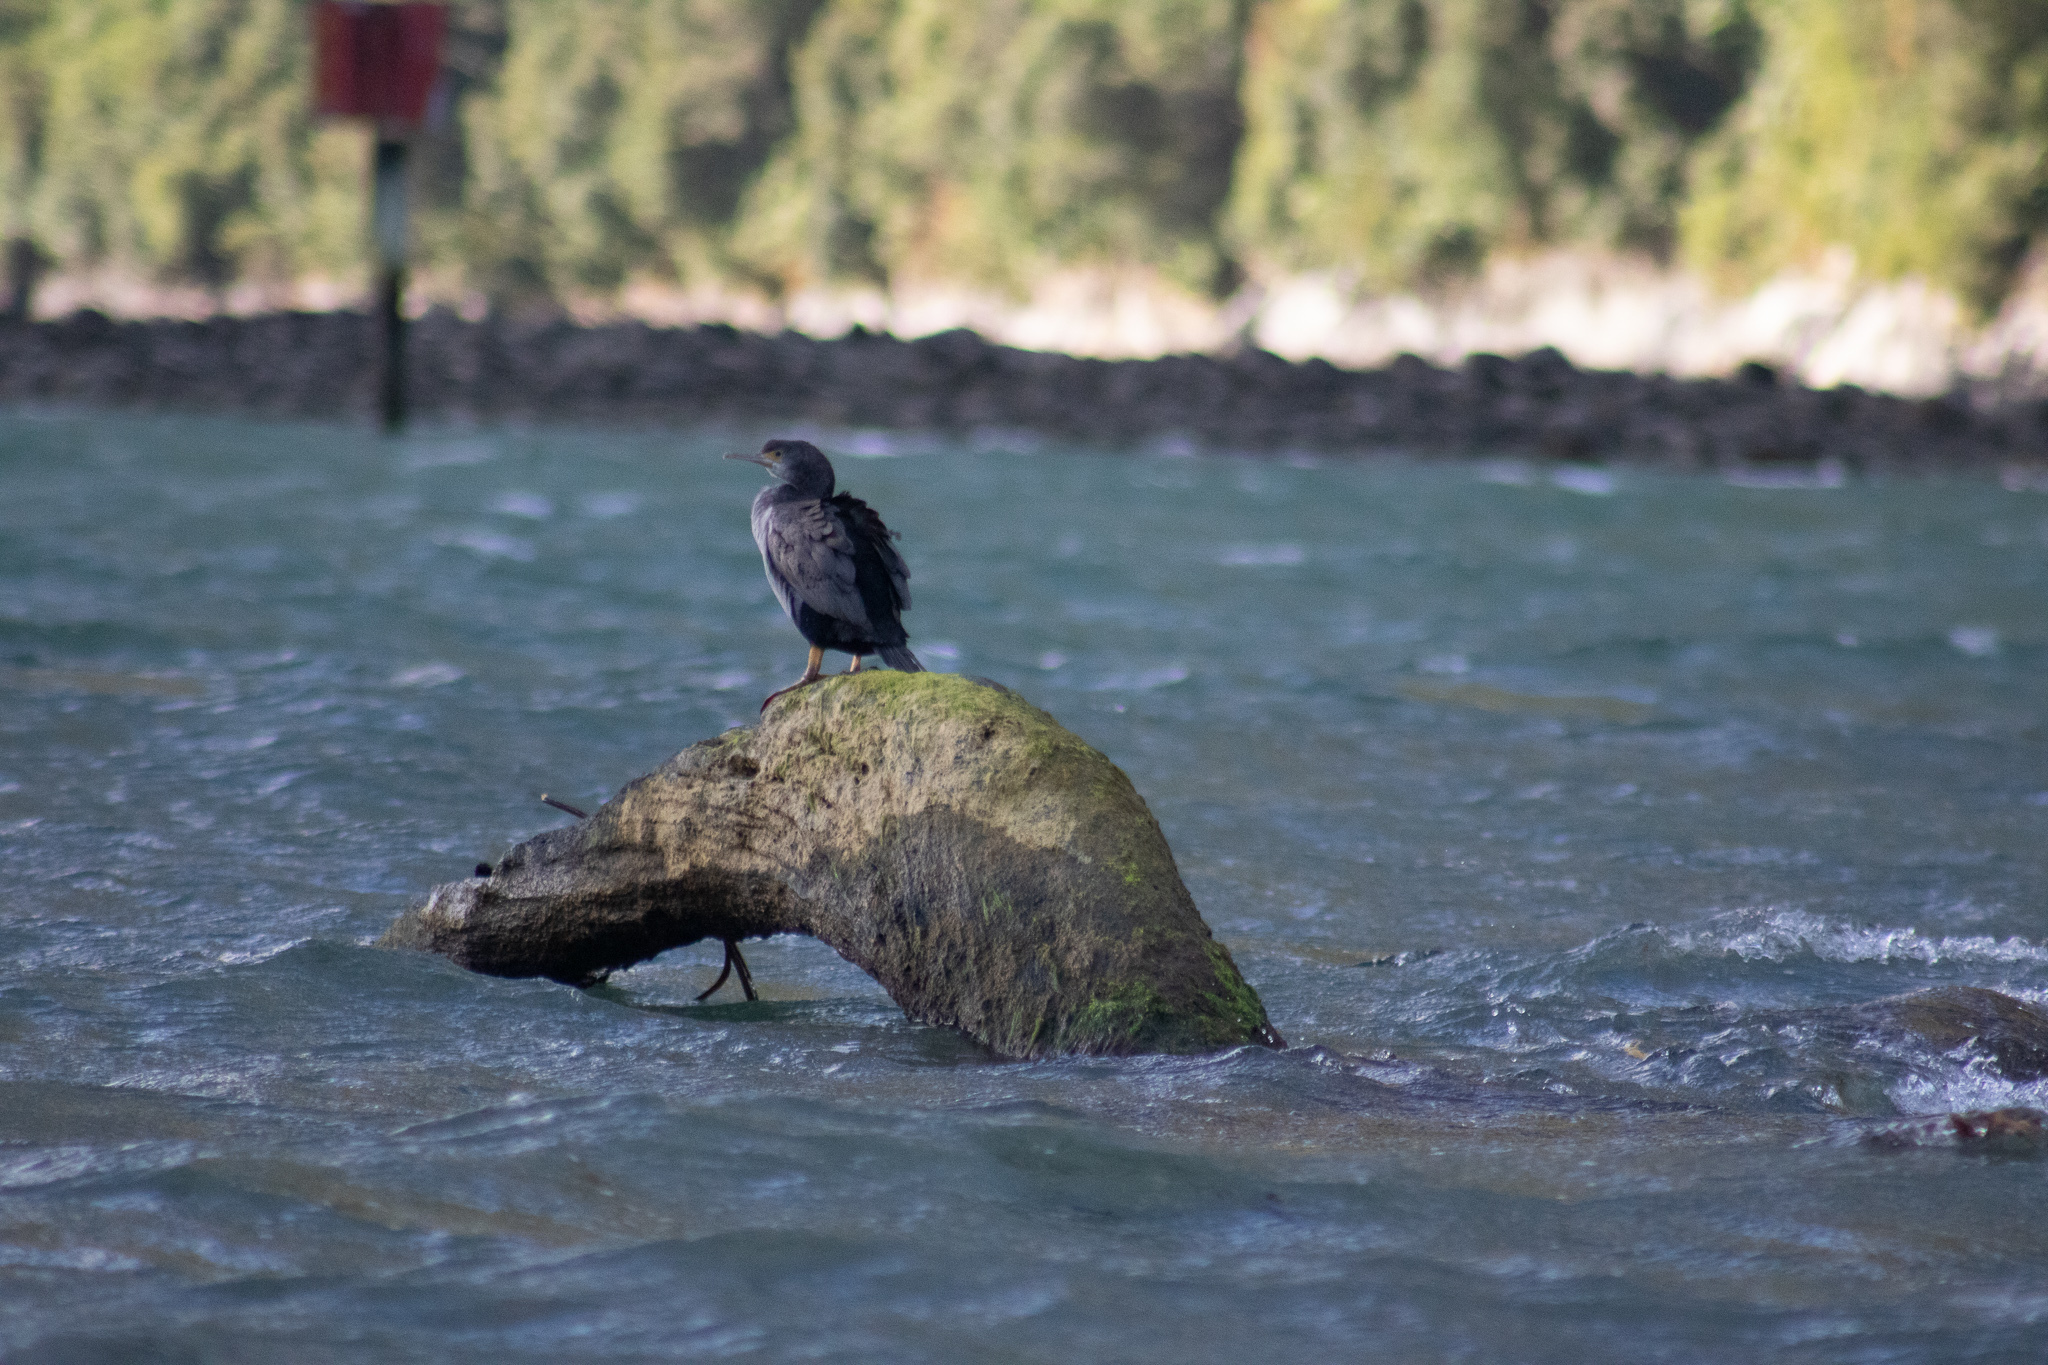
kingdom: Animalia
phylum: Chordata
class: Aves
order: Suliformes
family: Phalacrocoracidae
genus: Phalacrocorax
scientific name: Phalacrocorax punctatus
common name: Spotted shag
